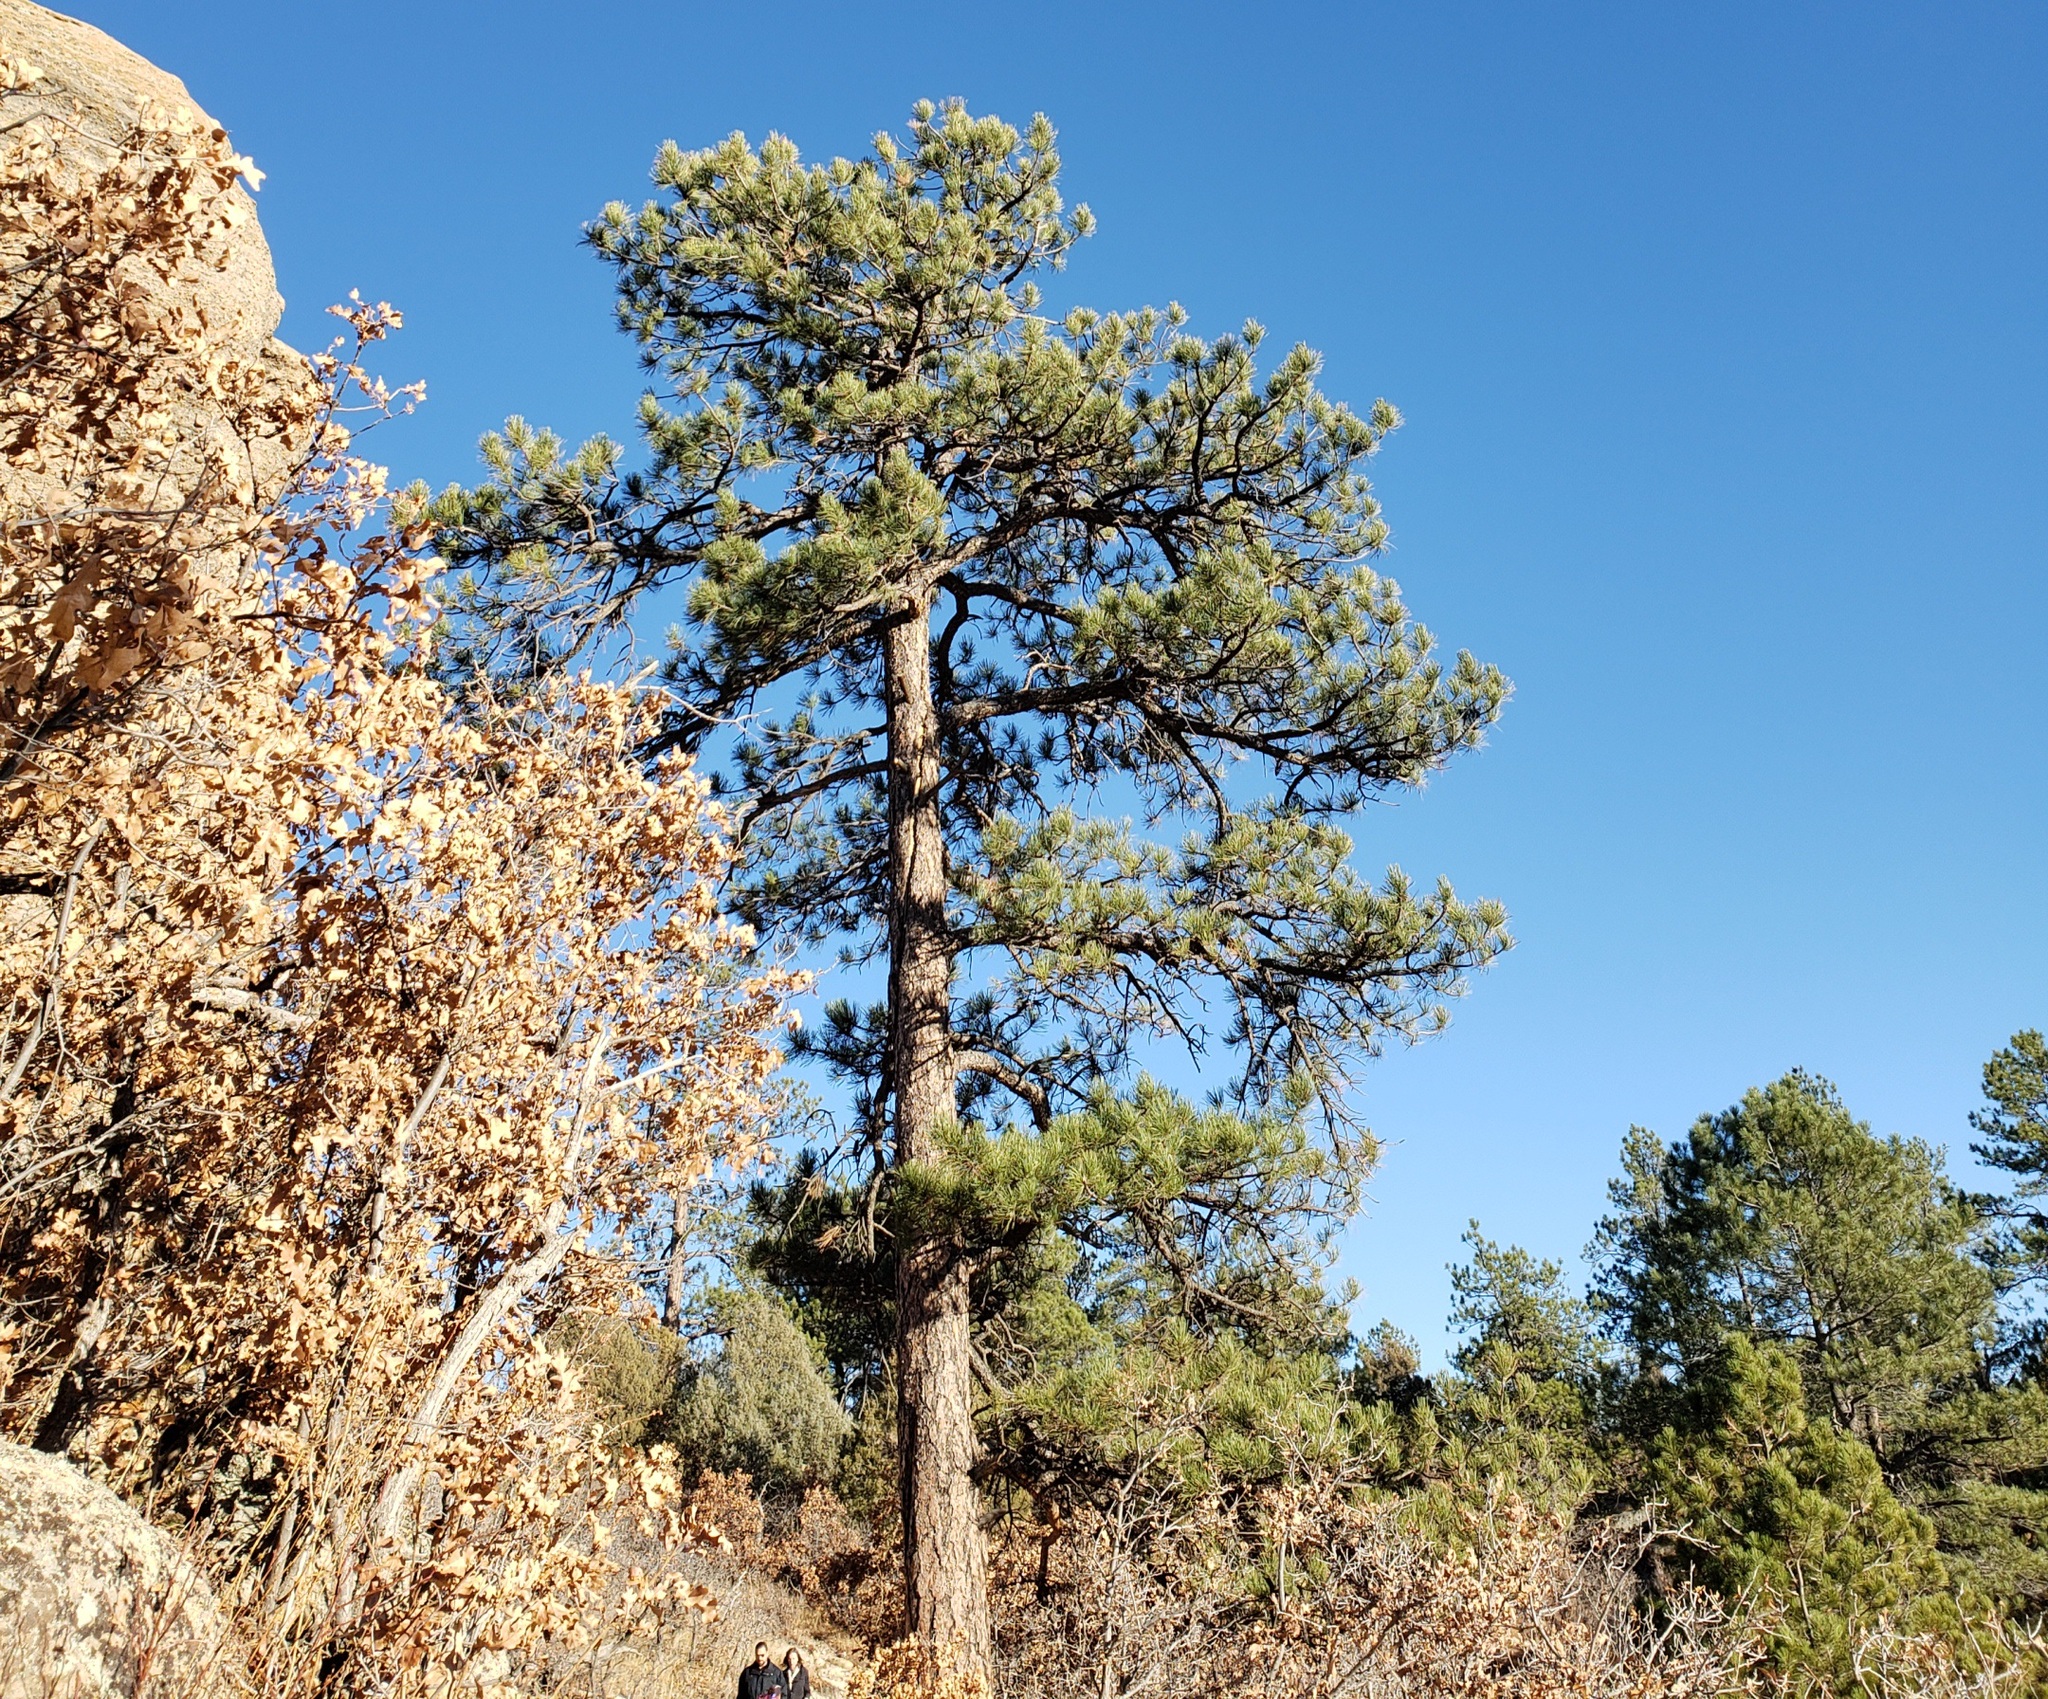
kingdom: Plantae
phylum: Tracheophyta
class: Pinopsida
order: Pinales
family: Pinaceae
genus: Pinus
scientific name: Pinus ponderosa
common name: Western yellow-pine
